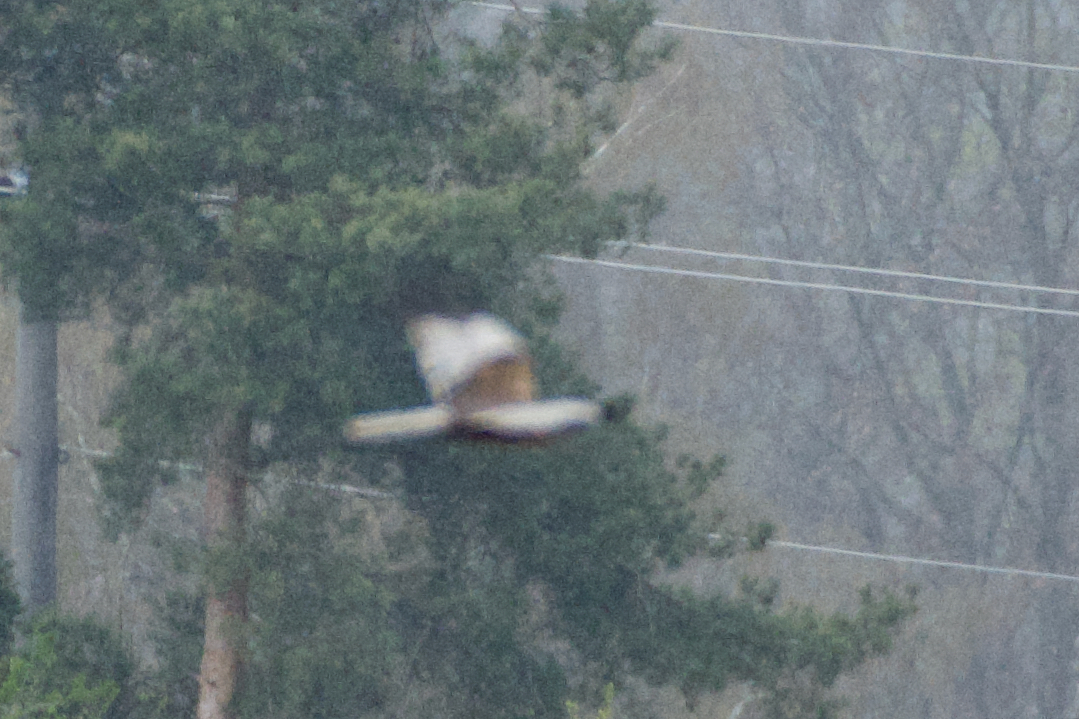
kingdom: Animalia
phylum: Chordata
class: Aves
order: Accipitriformes
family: Accipitridae
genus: Circus
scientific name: Circus aeruginosus
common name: Western marsh harrier
